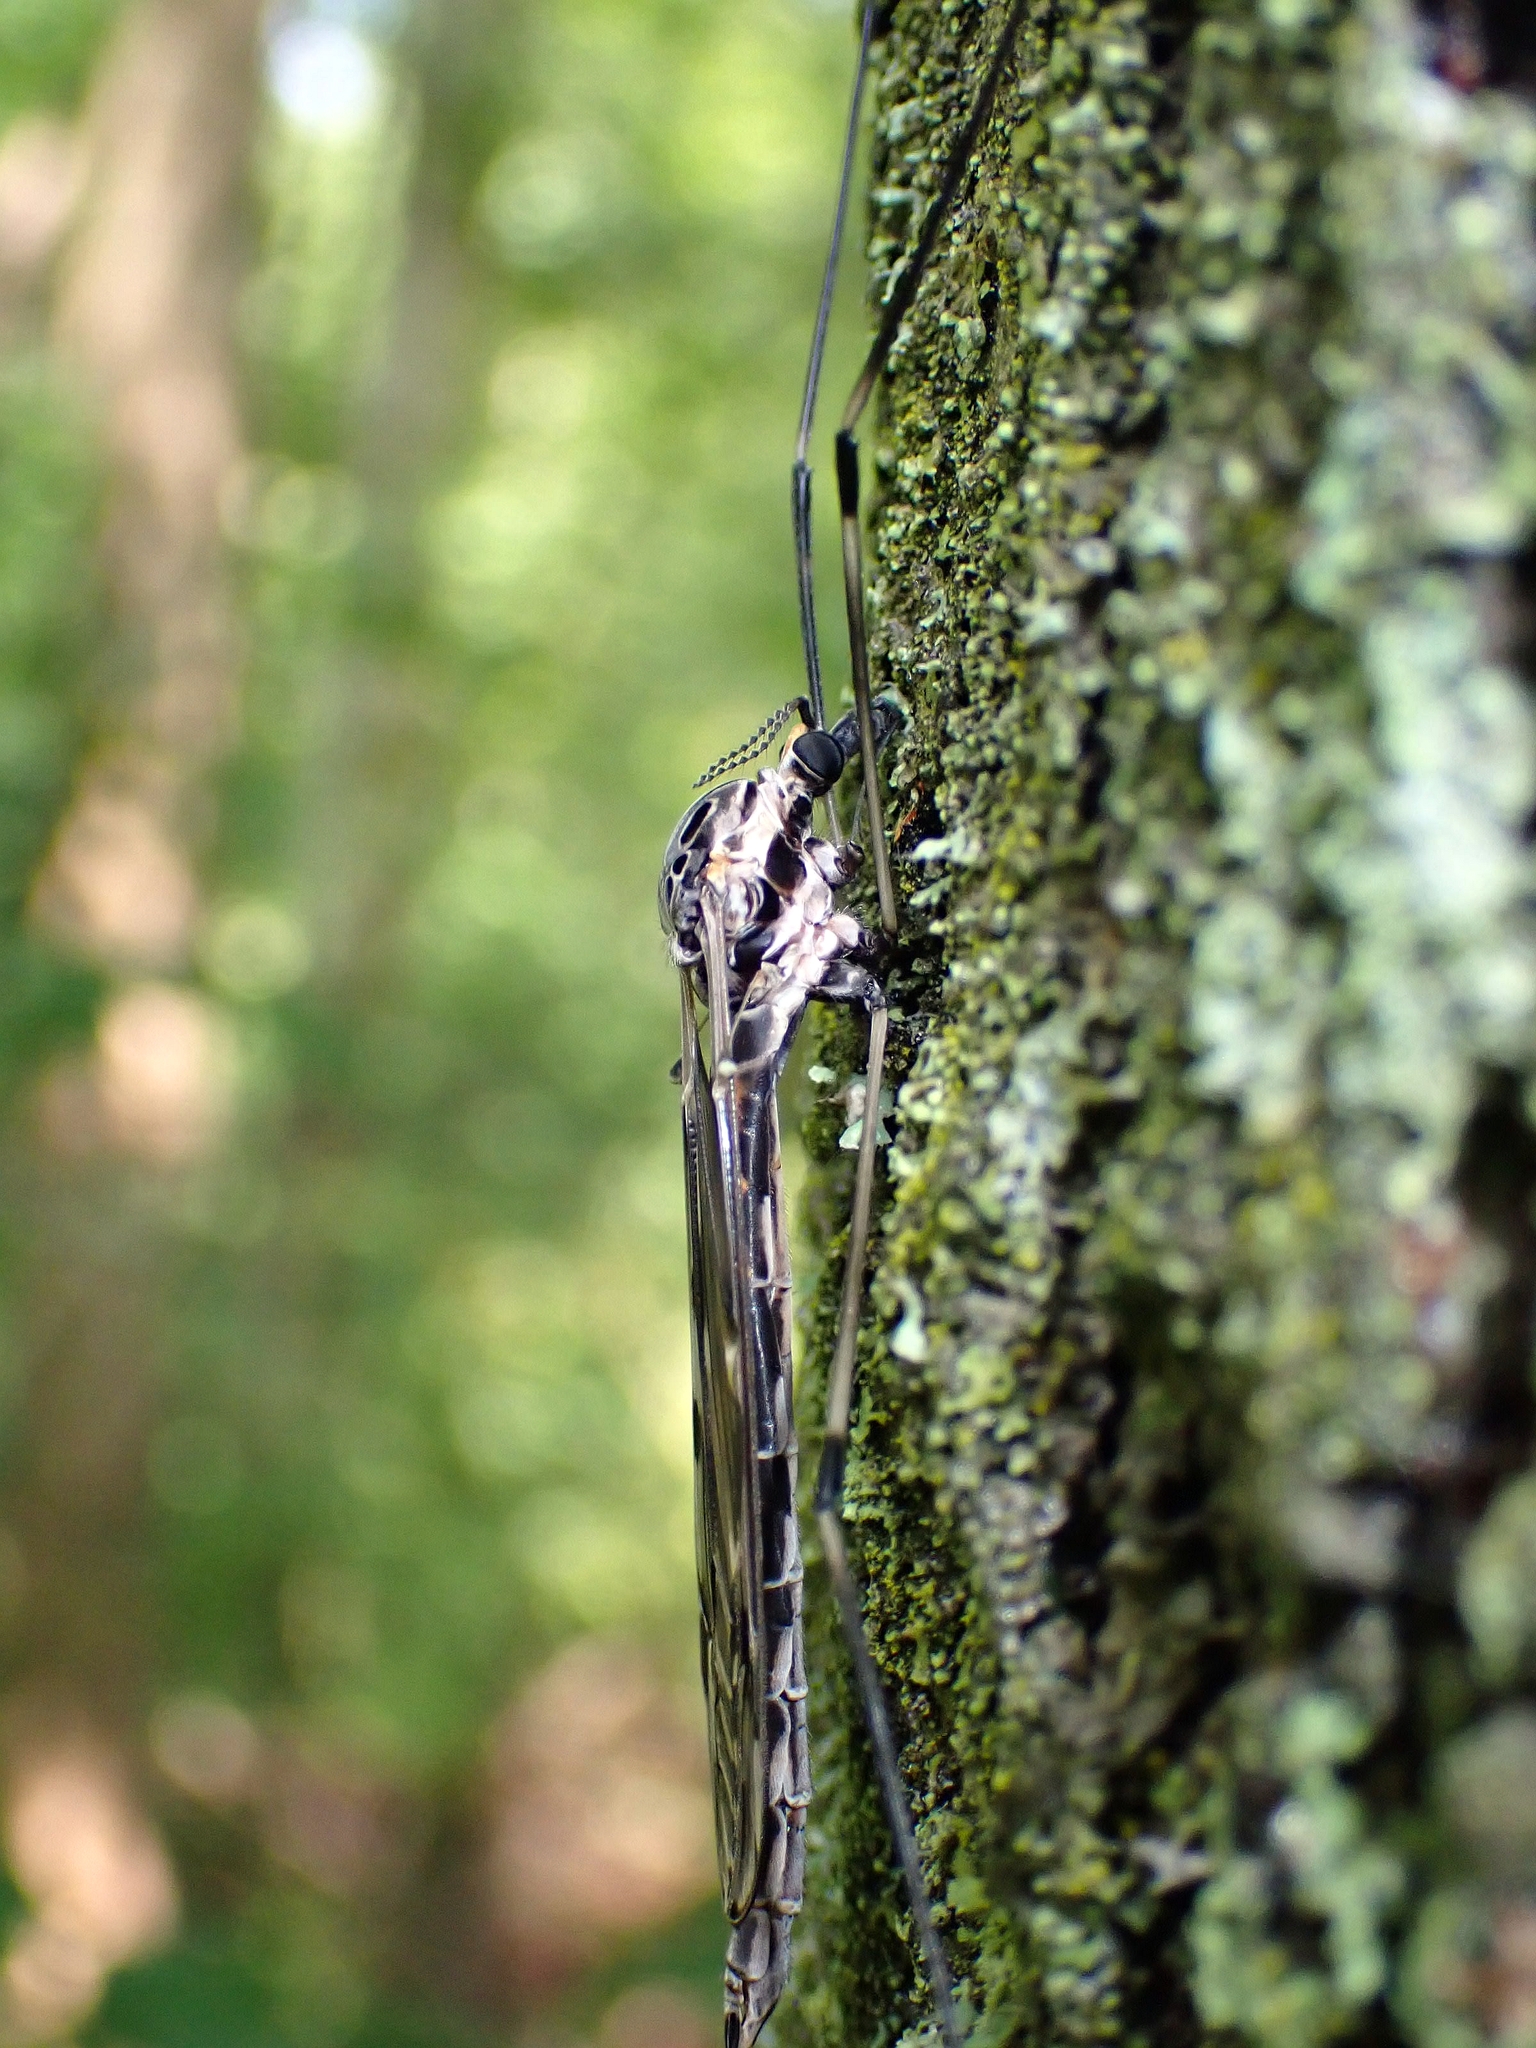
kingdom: Animalia
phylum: Arthropoda
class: Insecta
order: Diptera
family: Tipulidae
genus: Tipula
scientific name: Tipula abdominalis
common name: Giant crane fly
